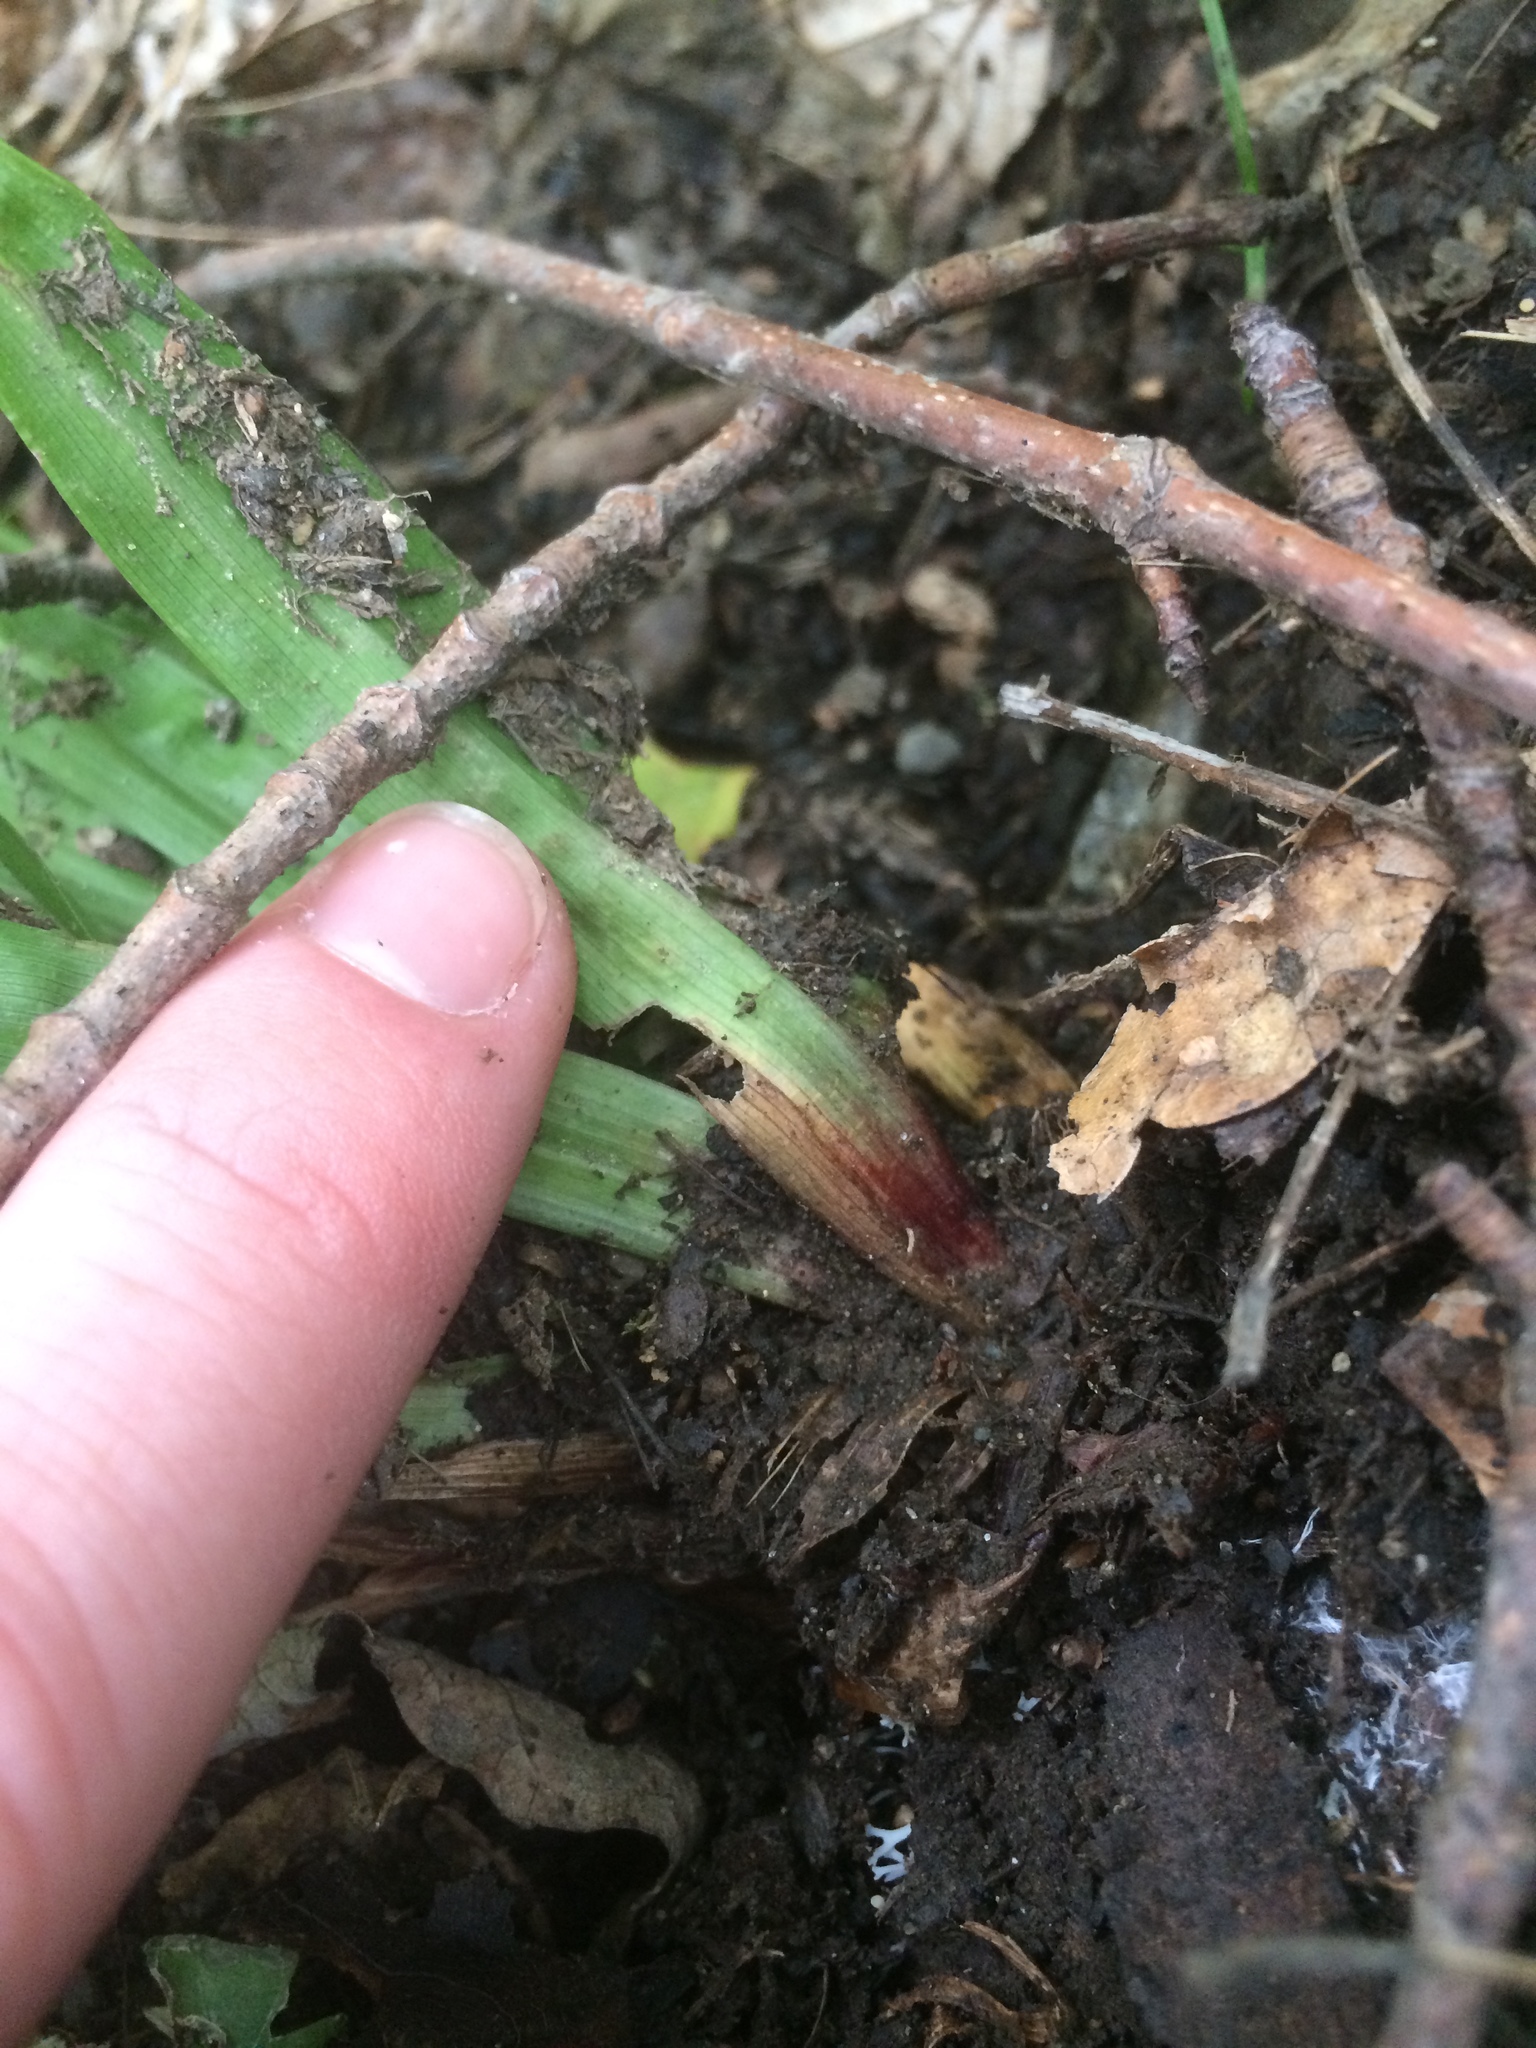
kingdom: Plantae
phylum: Tracheophyta
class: Liliopsida
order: Poales
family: Cyperaceae
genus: Carex
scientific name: Carex plantaginea
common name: Plantain-leaved sedge
